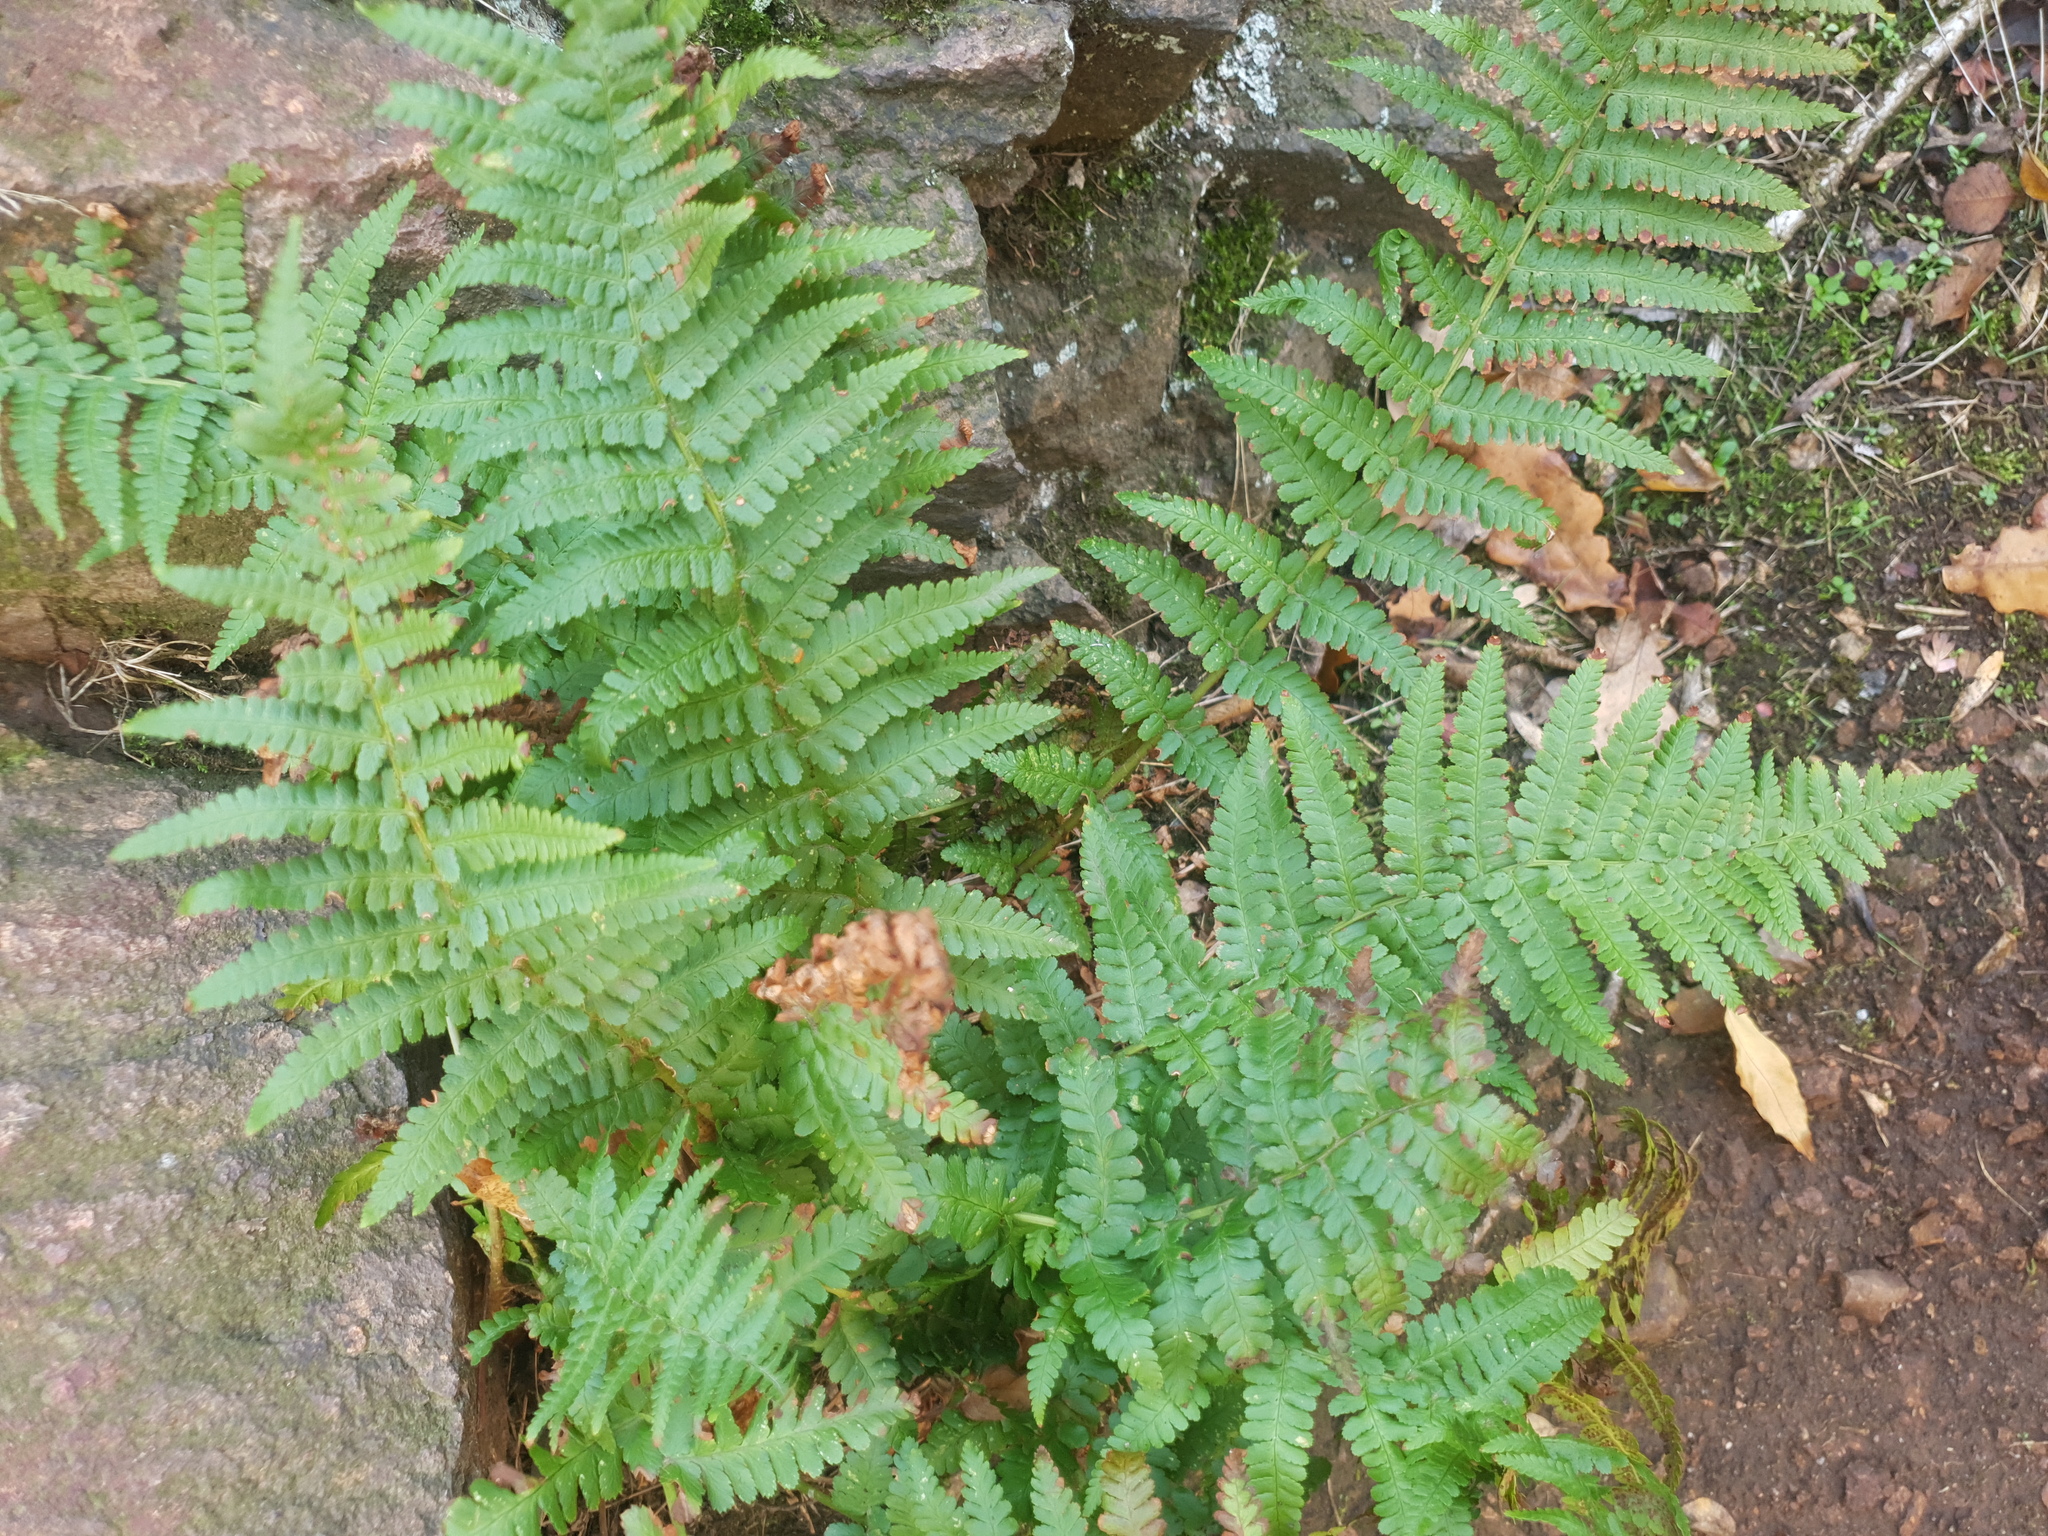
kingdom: Plantae
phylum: Tracheophyta
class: Polypodiopsida
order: Polypodiales
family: Dryopteridaceae
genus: Dryopteris
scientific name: Dryopteris filix-mas
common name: Male fern
